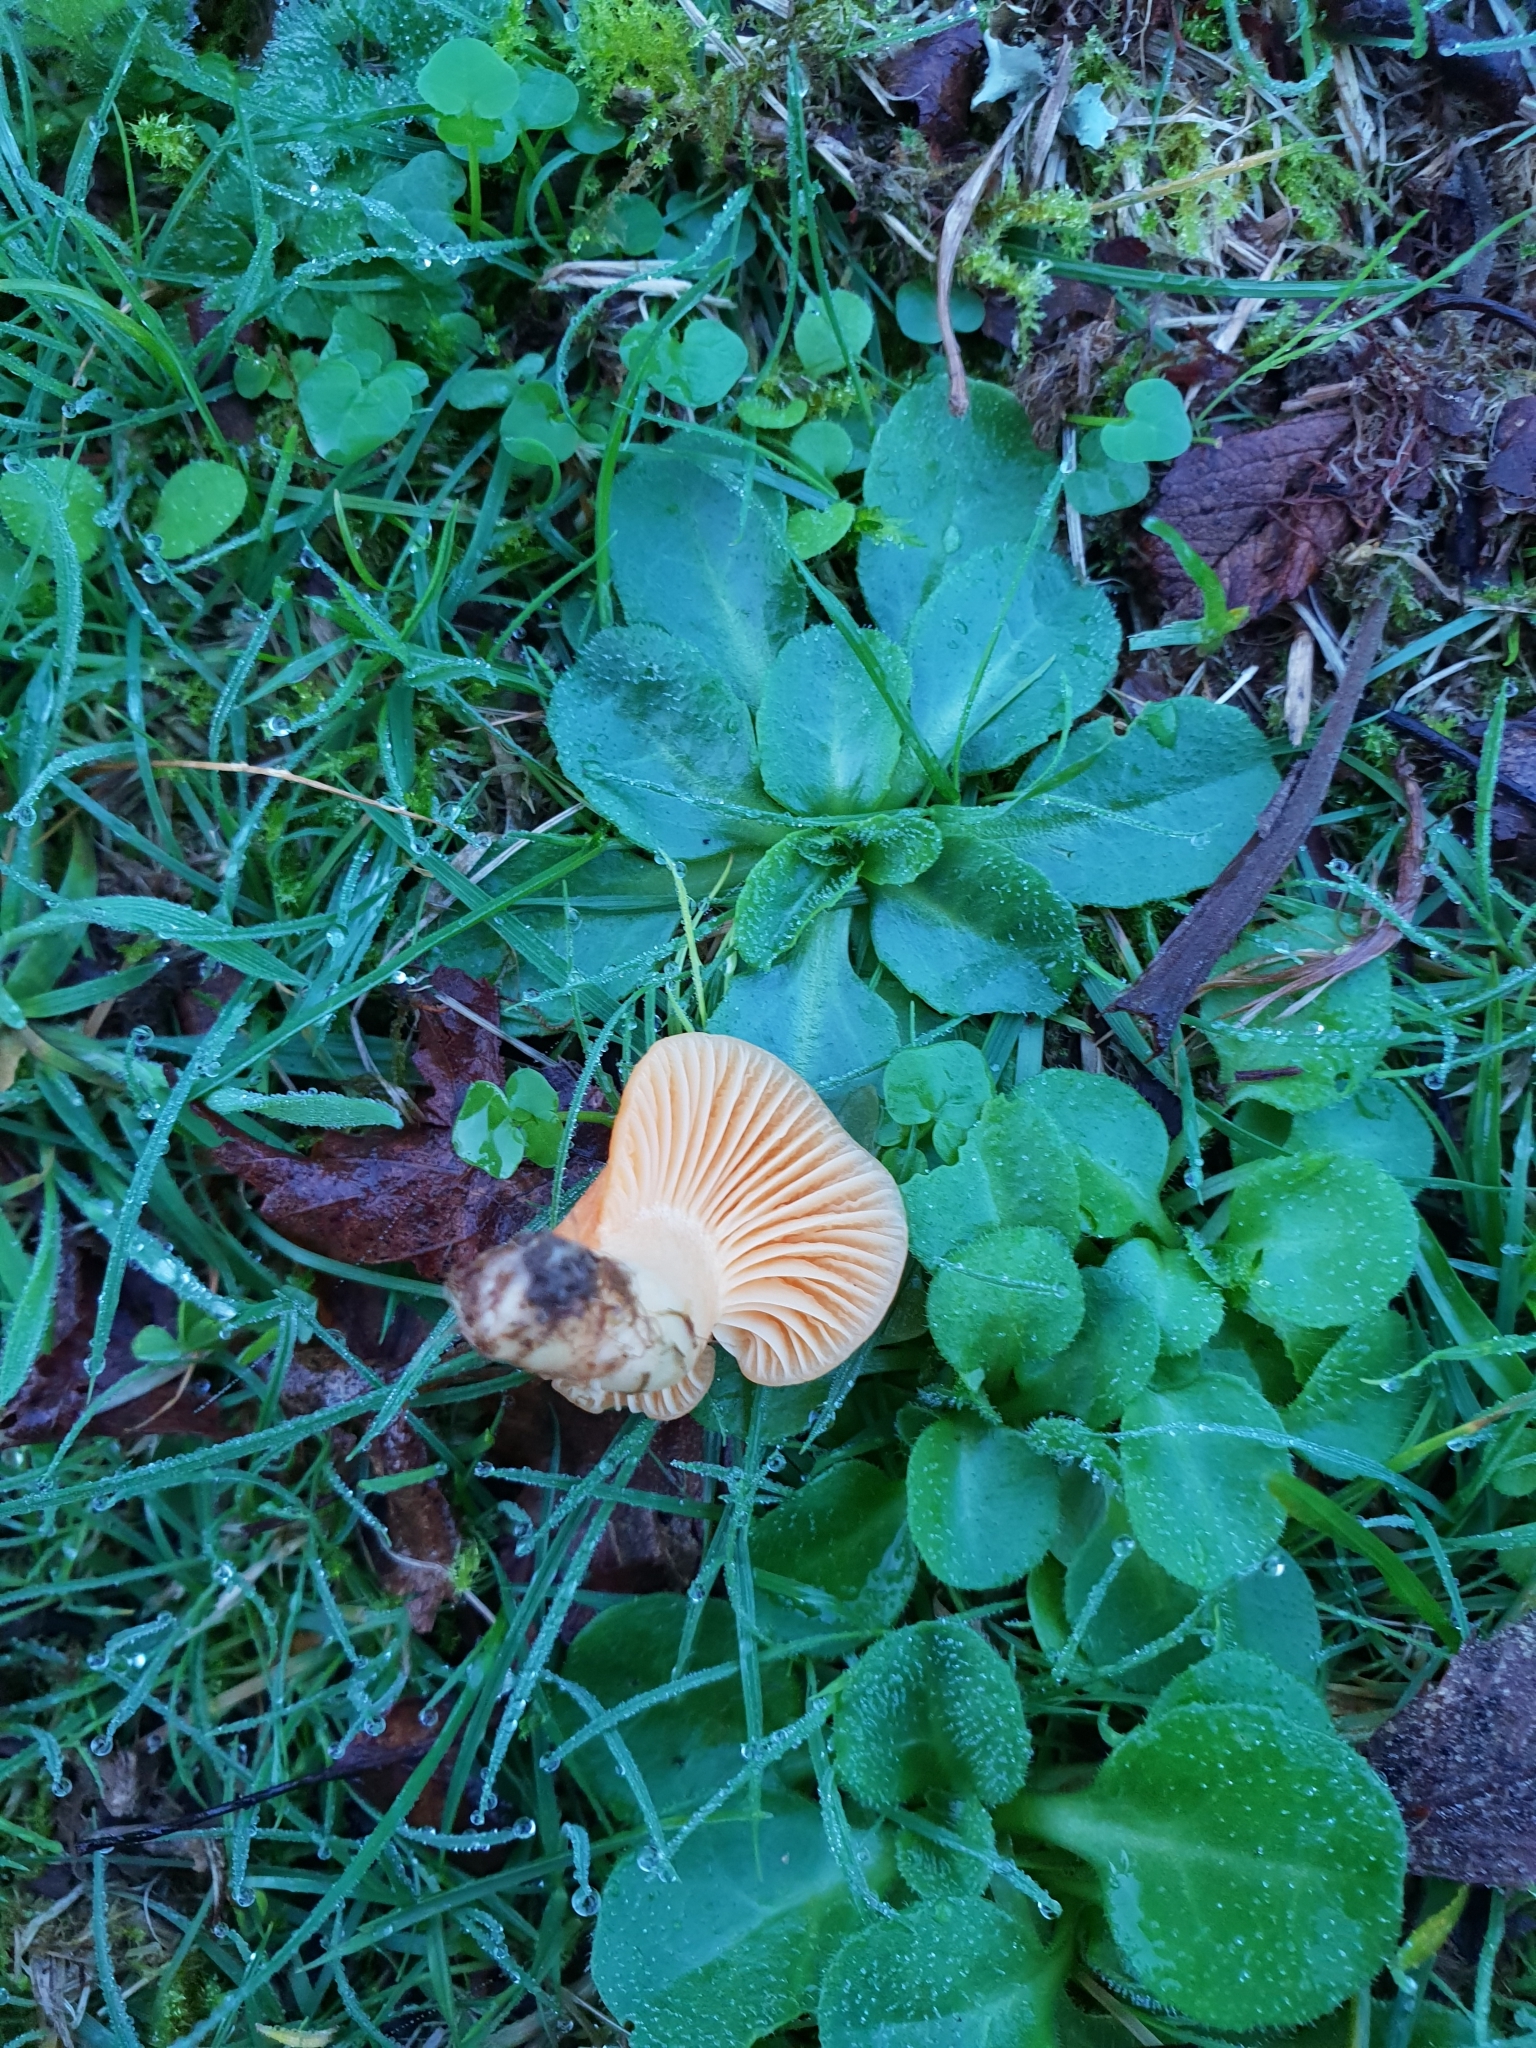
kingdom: Fungi
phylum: Basidiomycota
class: Agaricomycetes
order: Agaricales
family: Hygrophoraceae
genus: Cuphophyllus
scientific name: Cuphophyllus pratensis
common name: Meadow waxcap
